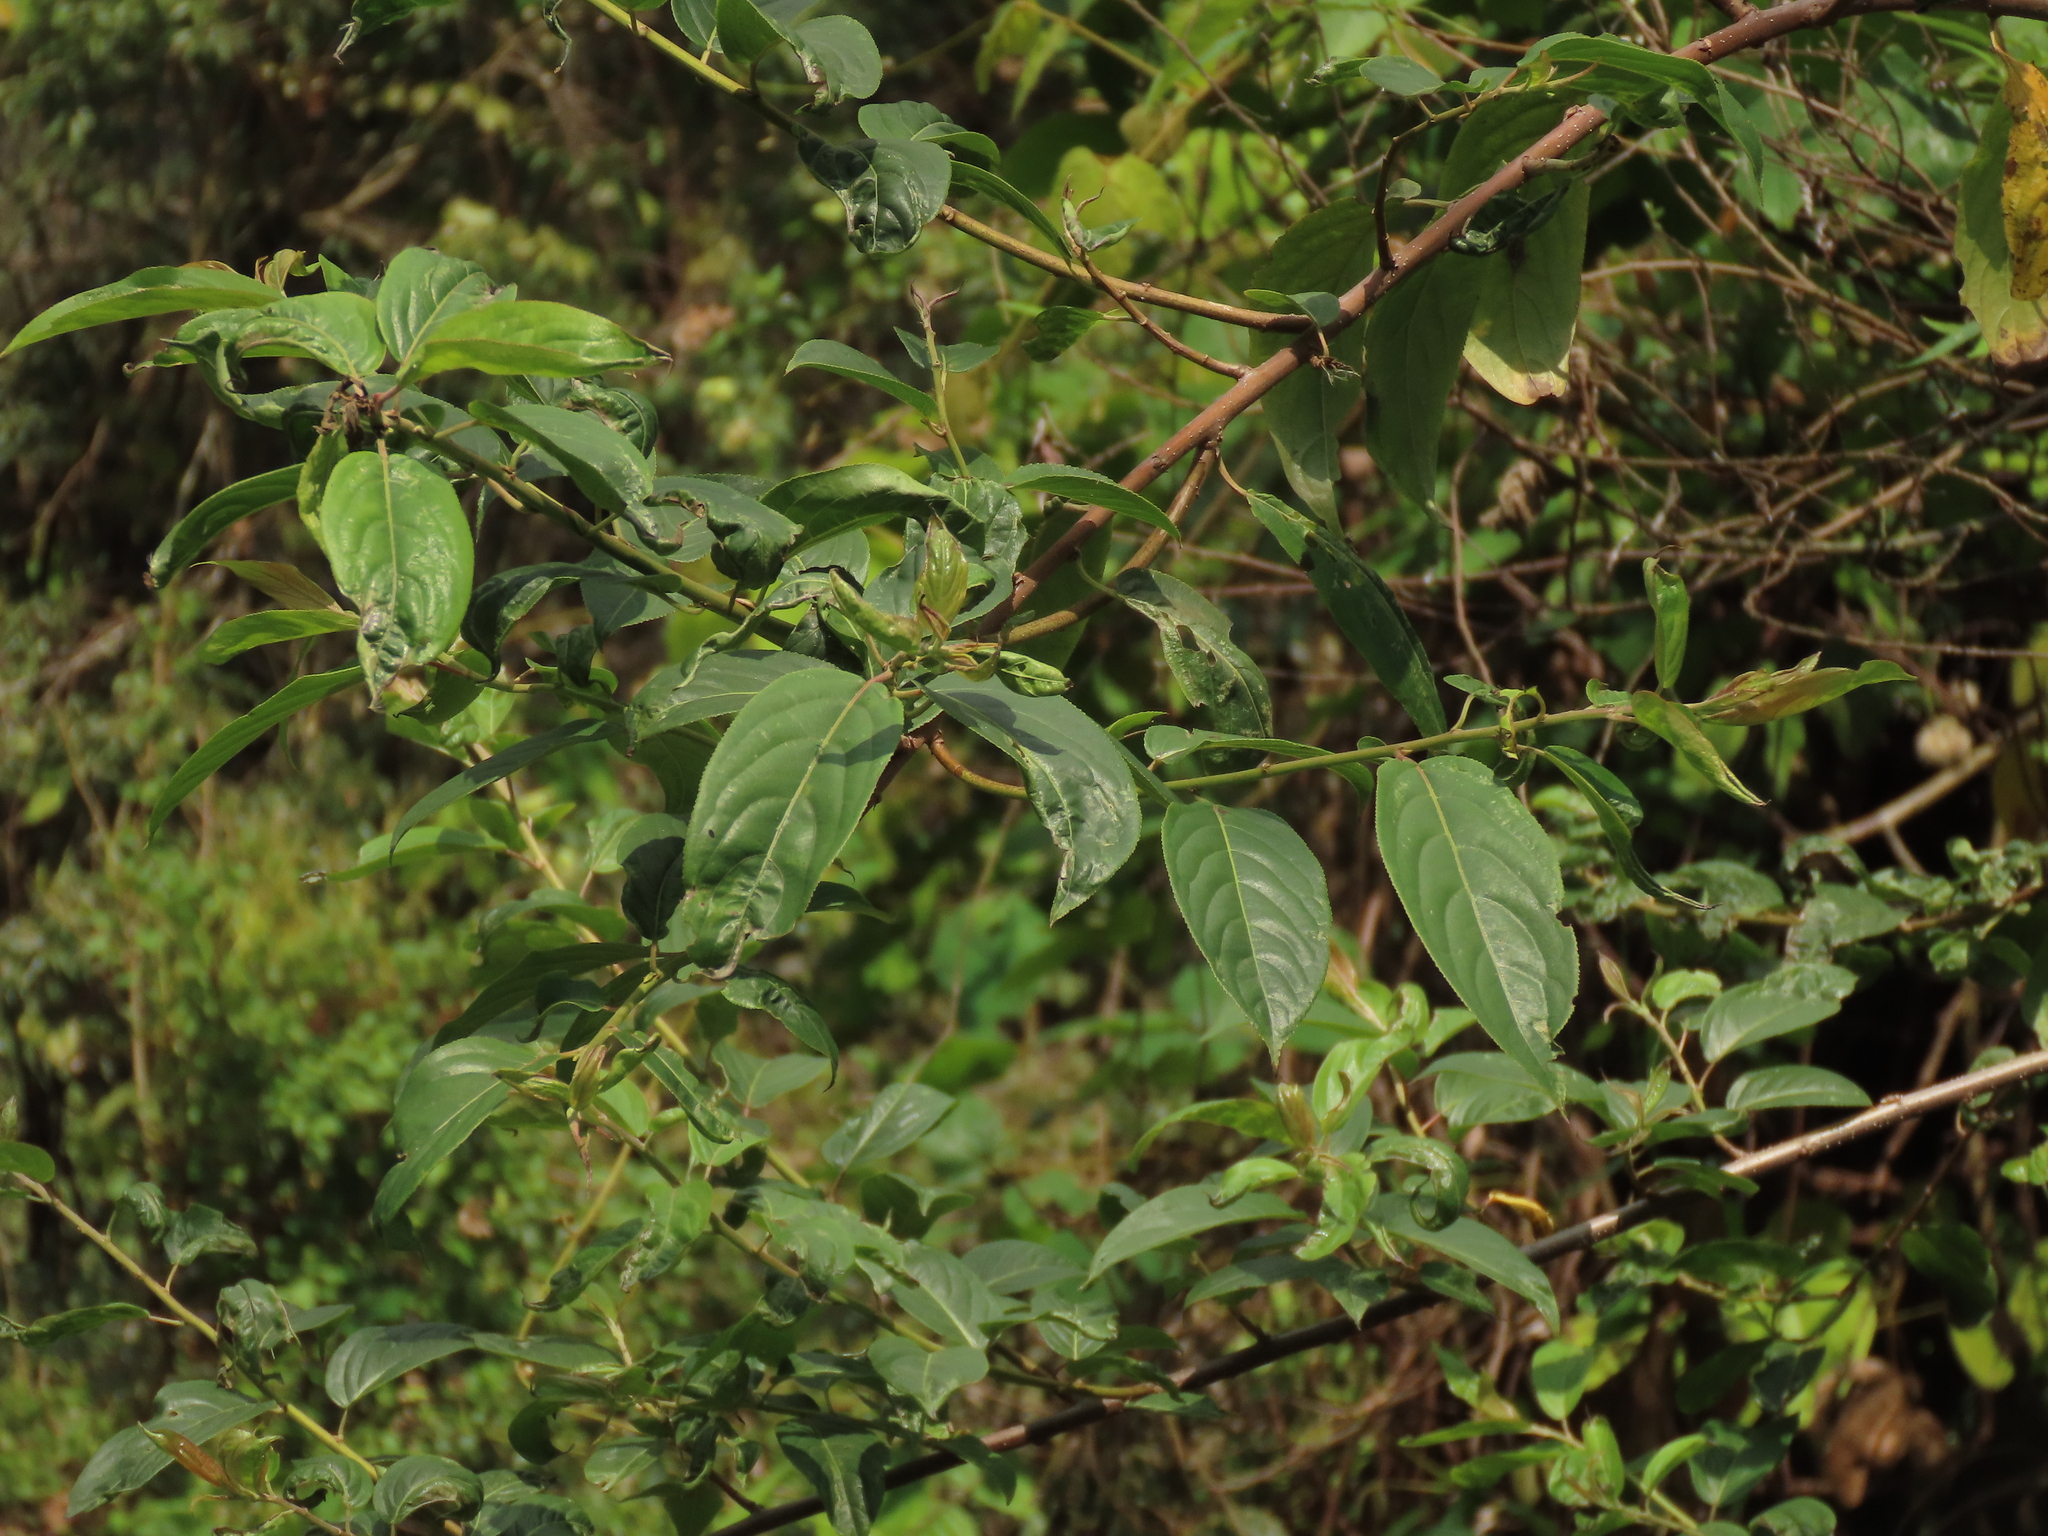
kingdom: Plantae
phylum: Tracheophyta
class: Magnoliopsida
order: Rosales
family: Rhamnaceae
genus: Rhamnus
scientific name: Rhamnus formosana
